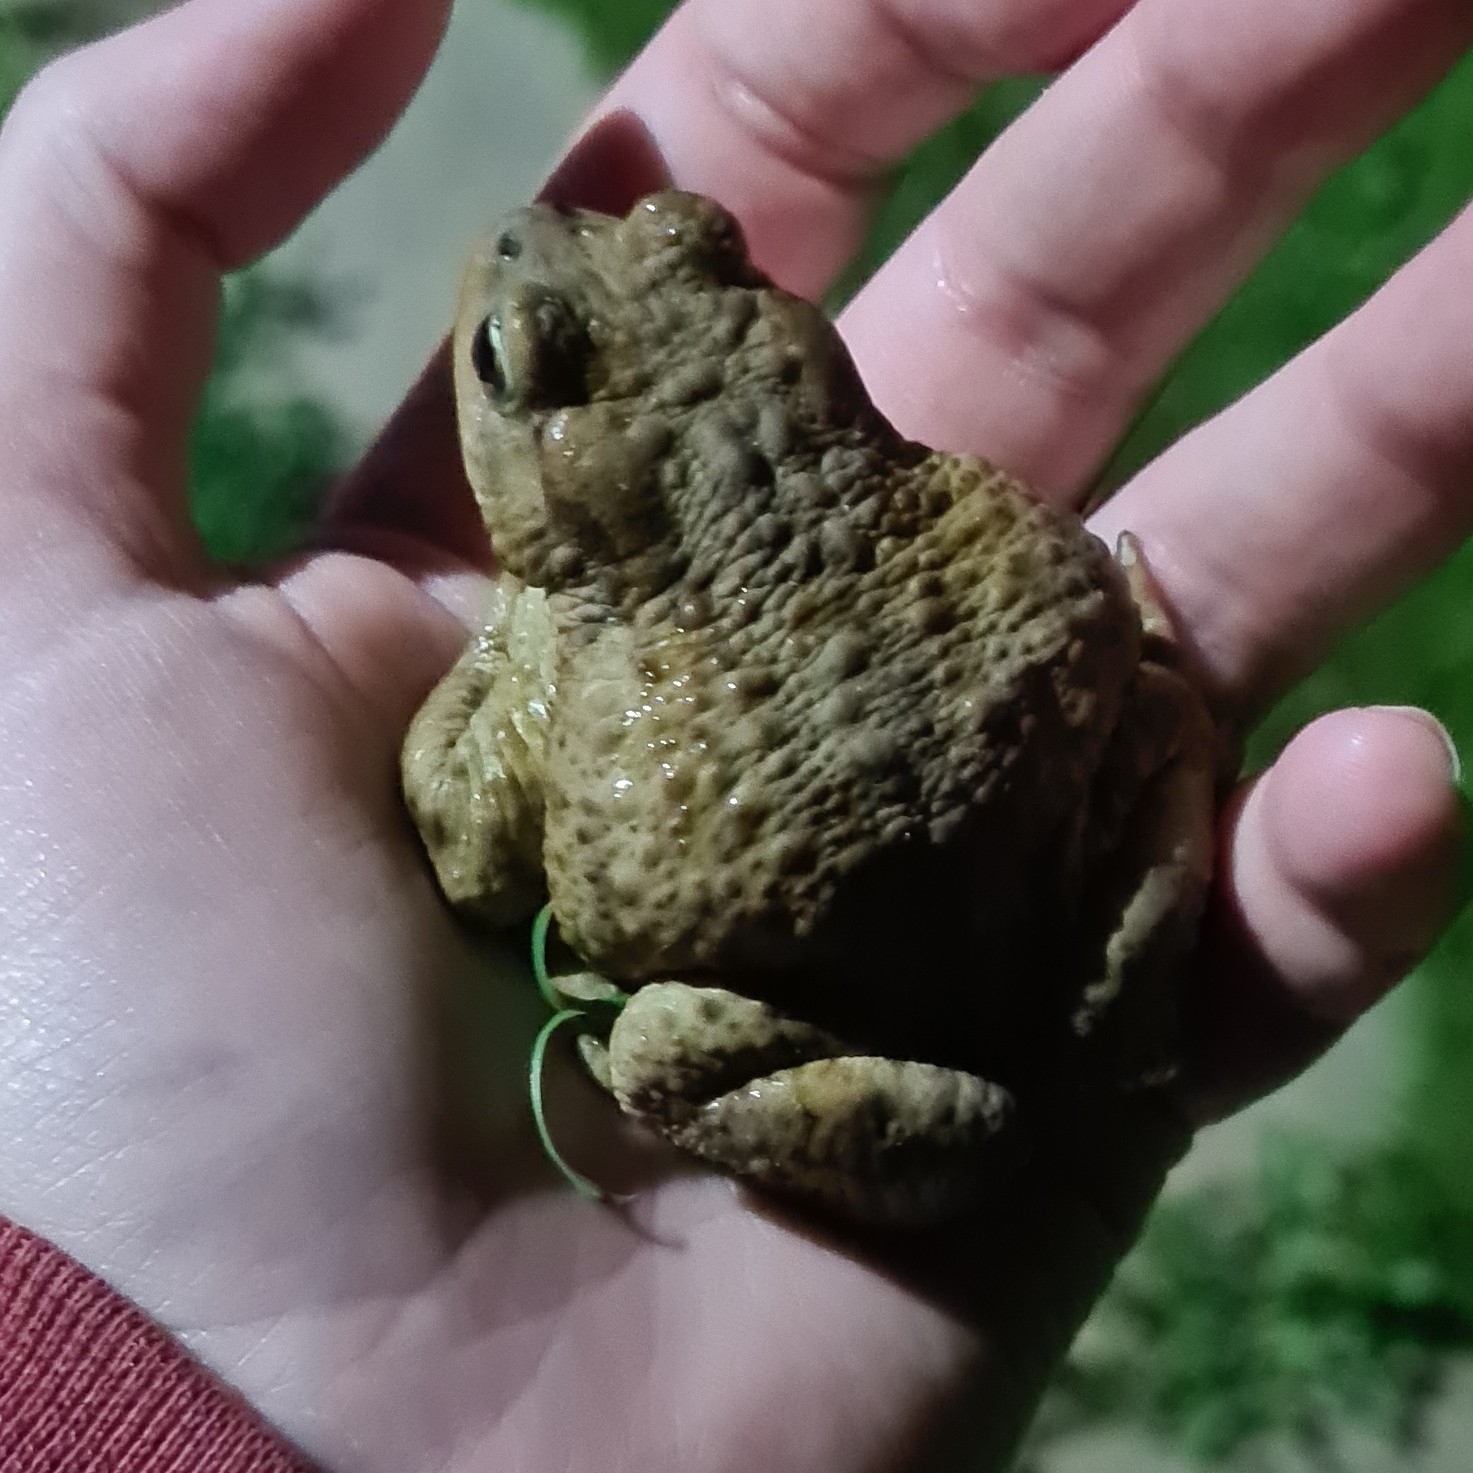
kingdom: Animalia
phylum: Chordata
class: Amphibia
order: Anura
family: Bufonidae
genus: Bufo
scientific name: Bufo bufo
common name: Common toad
